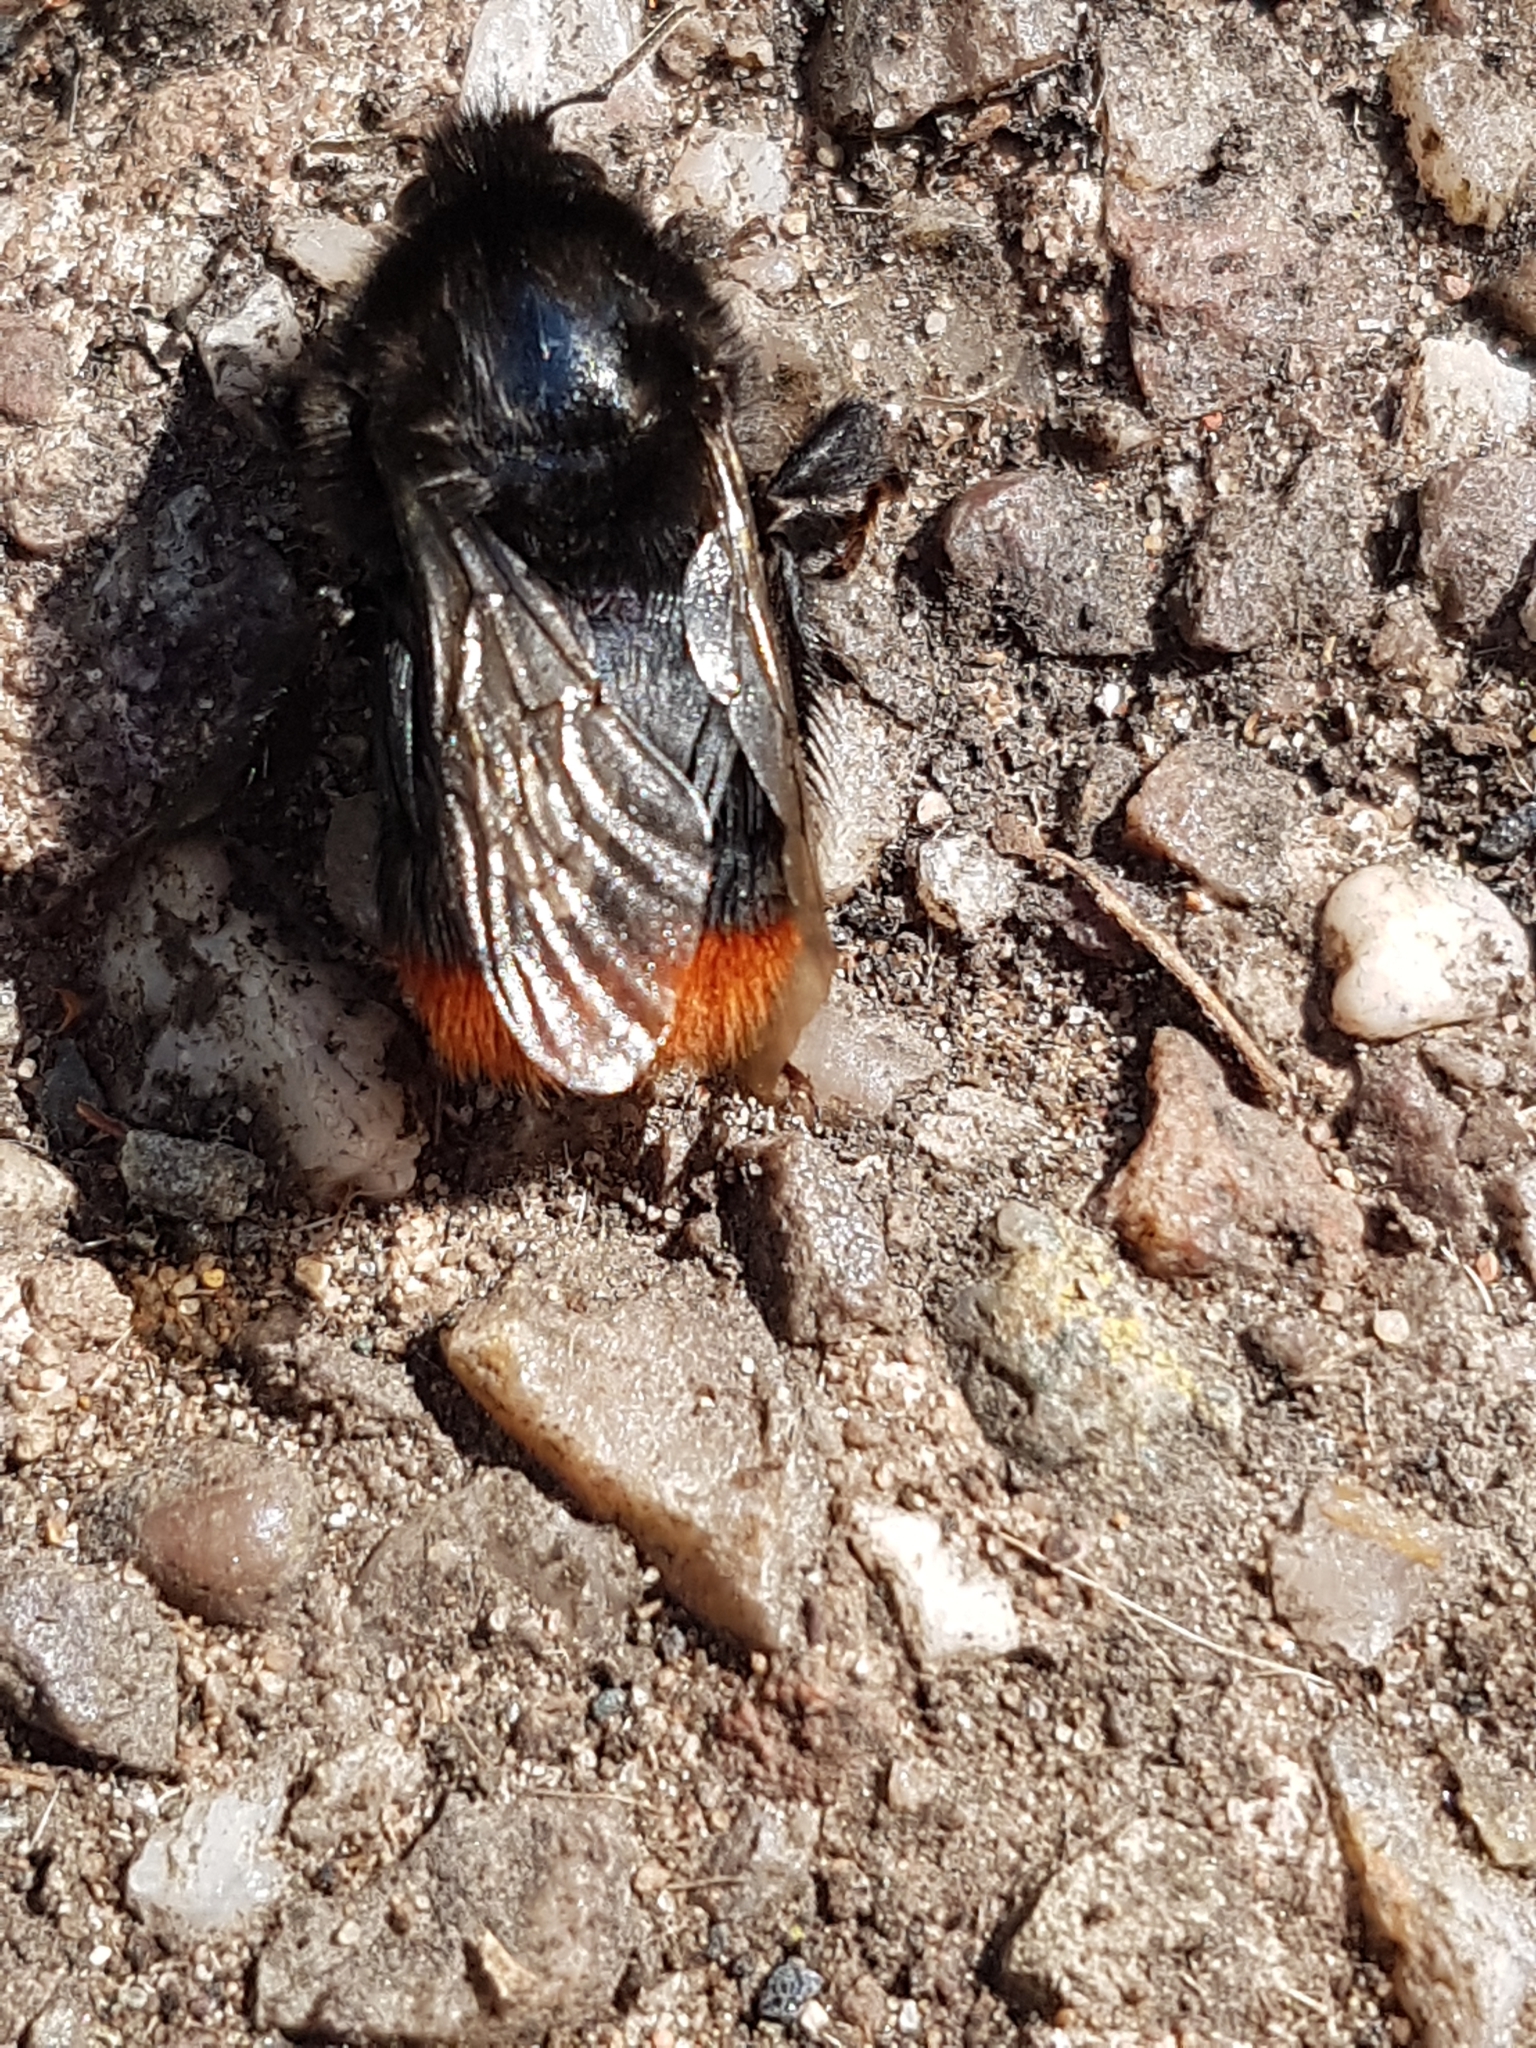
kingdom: Animalia
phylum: Arthropoda
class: Insecta
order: Hymenoptera
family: Apidae
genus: Bombus
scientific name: Bombus lapidarius
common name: Large red-tailed humble-bee
